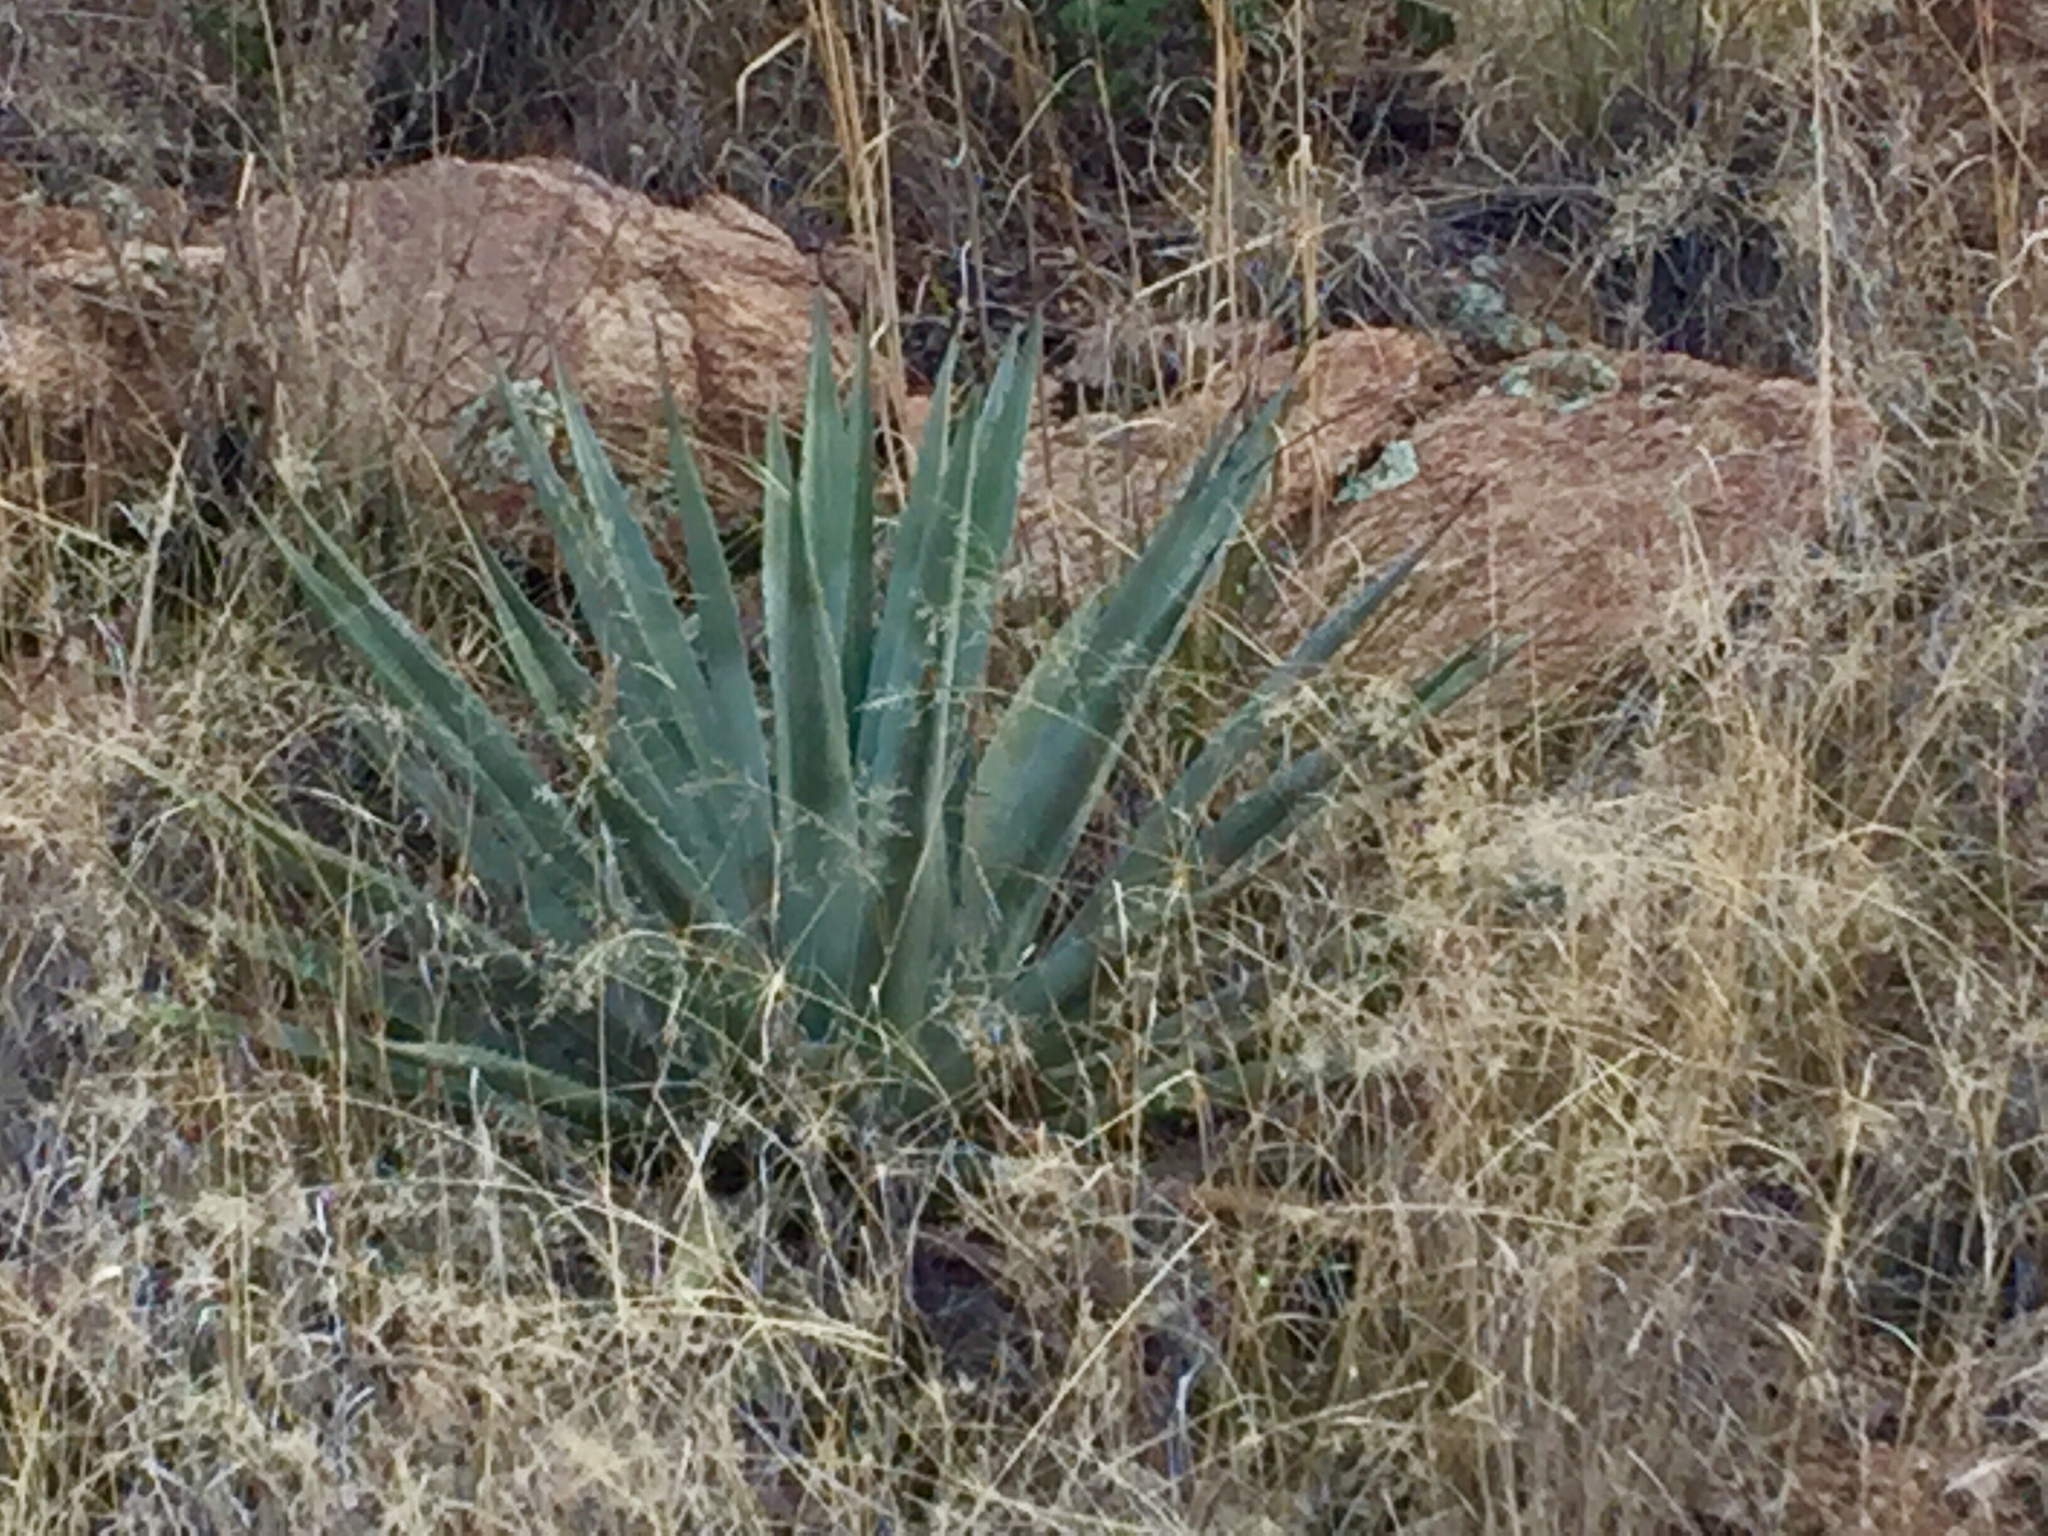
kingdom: Plantae
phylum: Tracheophyta
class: Liliopsida
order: Asparagales
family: Asparagaceae
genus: Agave
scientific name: Agave palmeri
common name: Palmer agave
